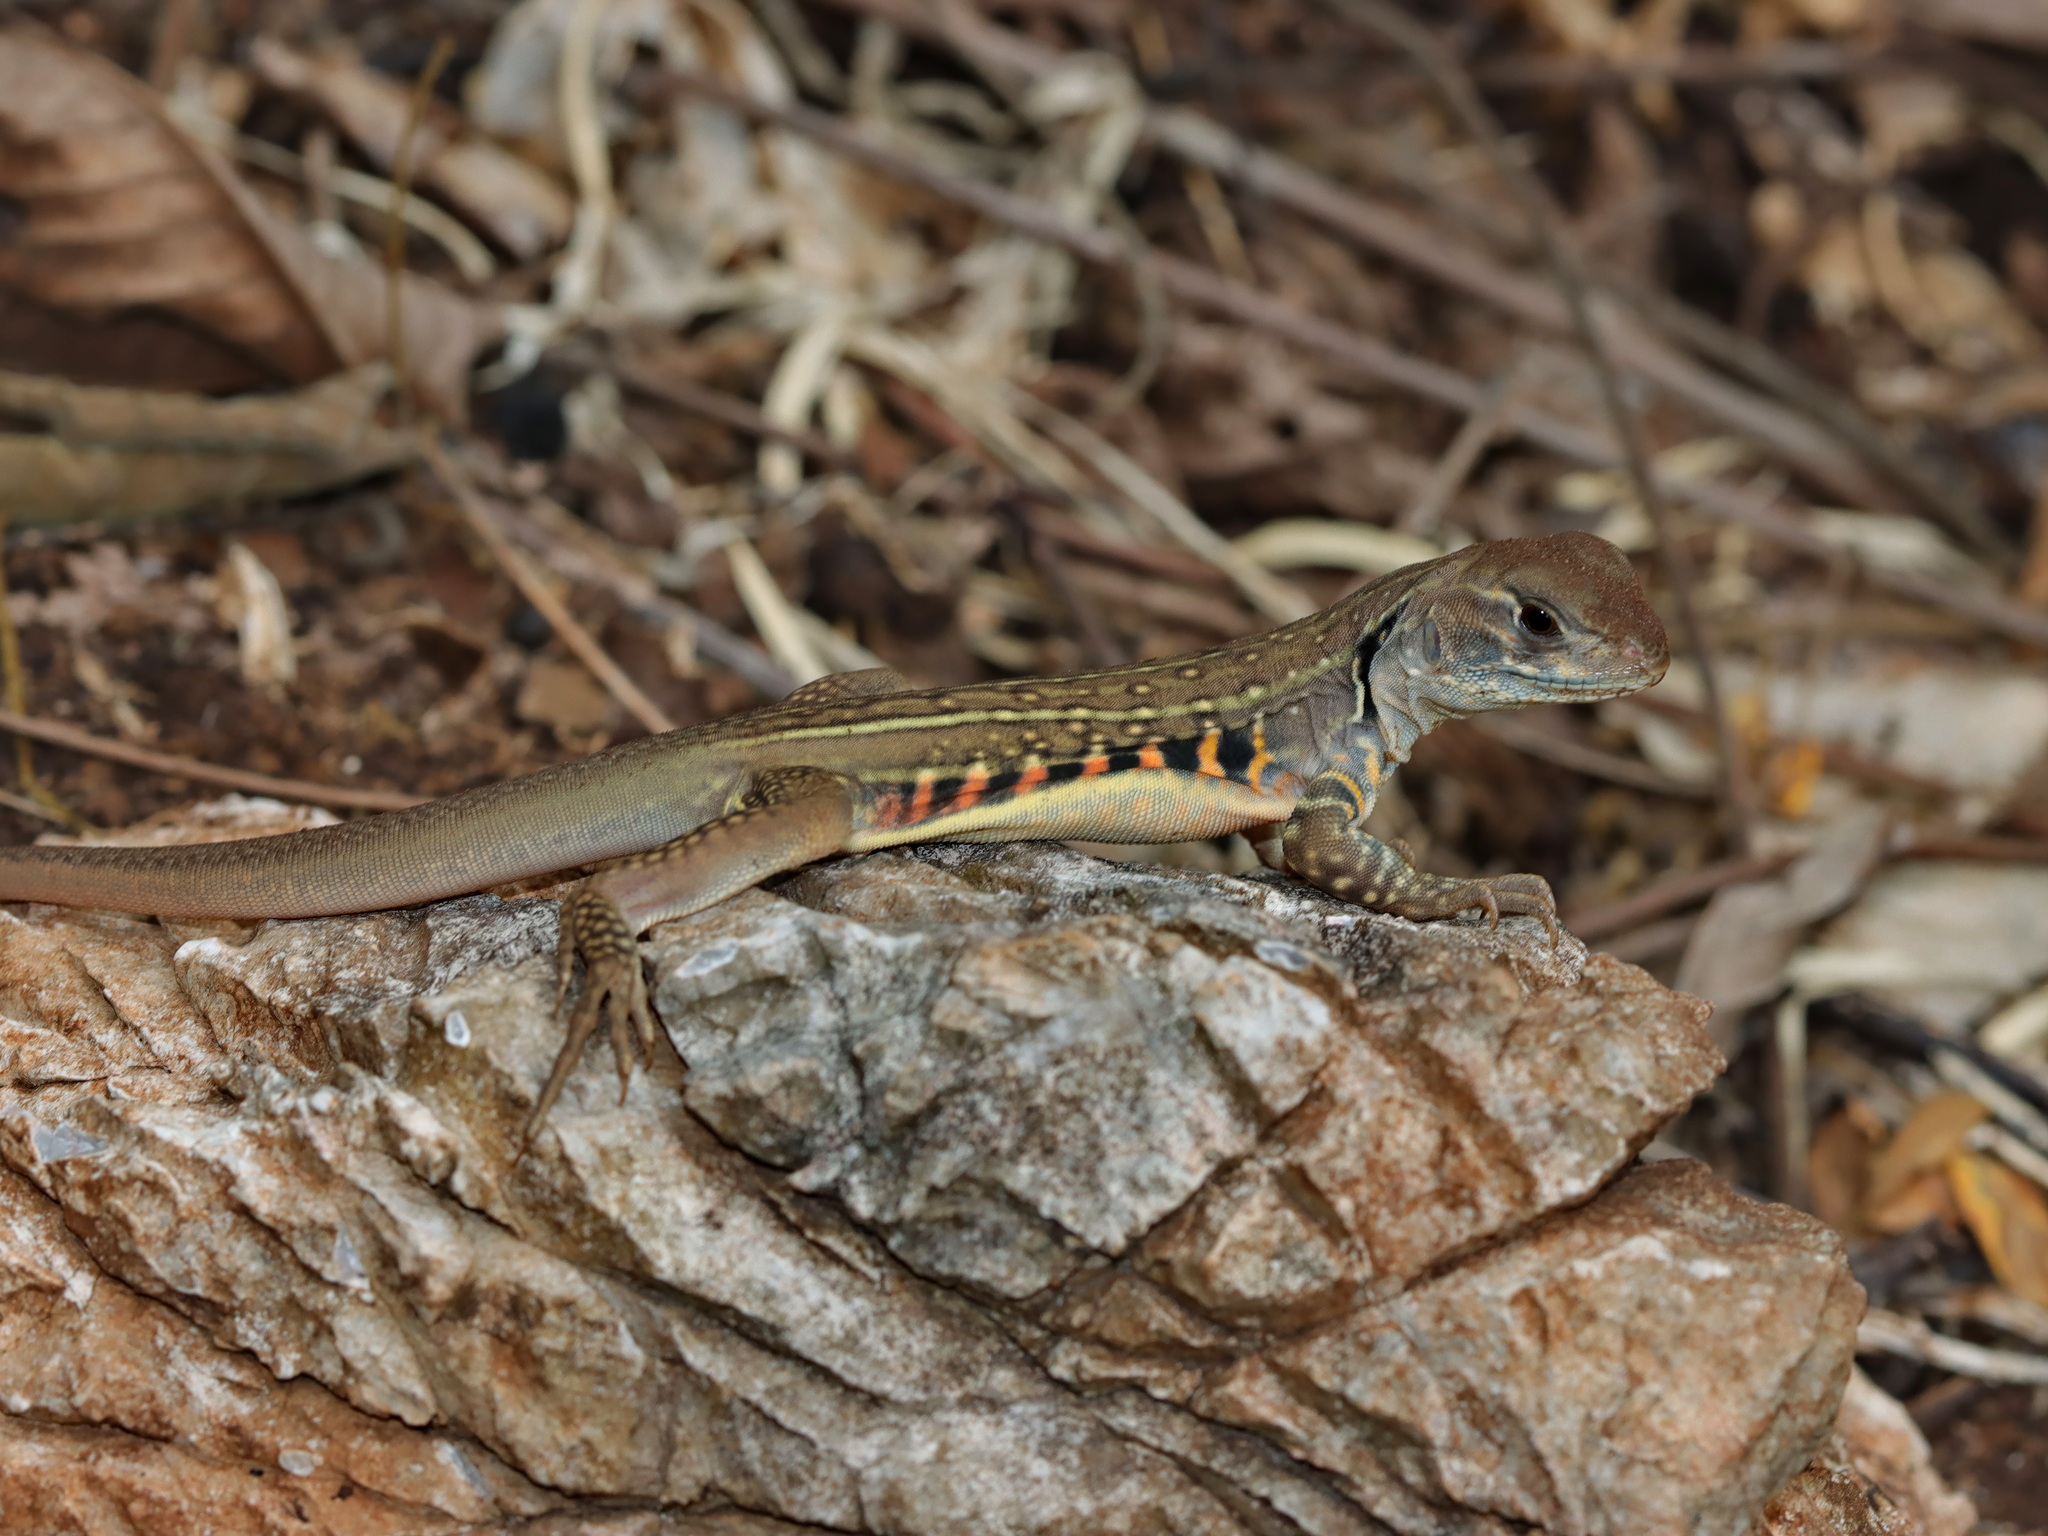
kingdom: Animalia
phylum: Chordata
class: Squamata
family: Agamidae
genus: Leiolepis
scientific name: Leiolepis belliana
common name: Common butterfly lizard
